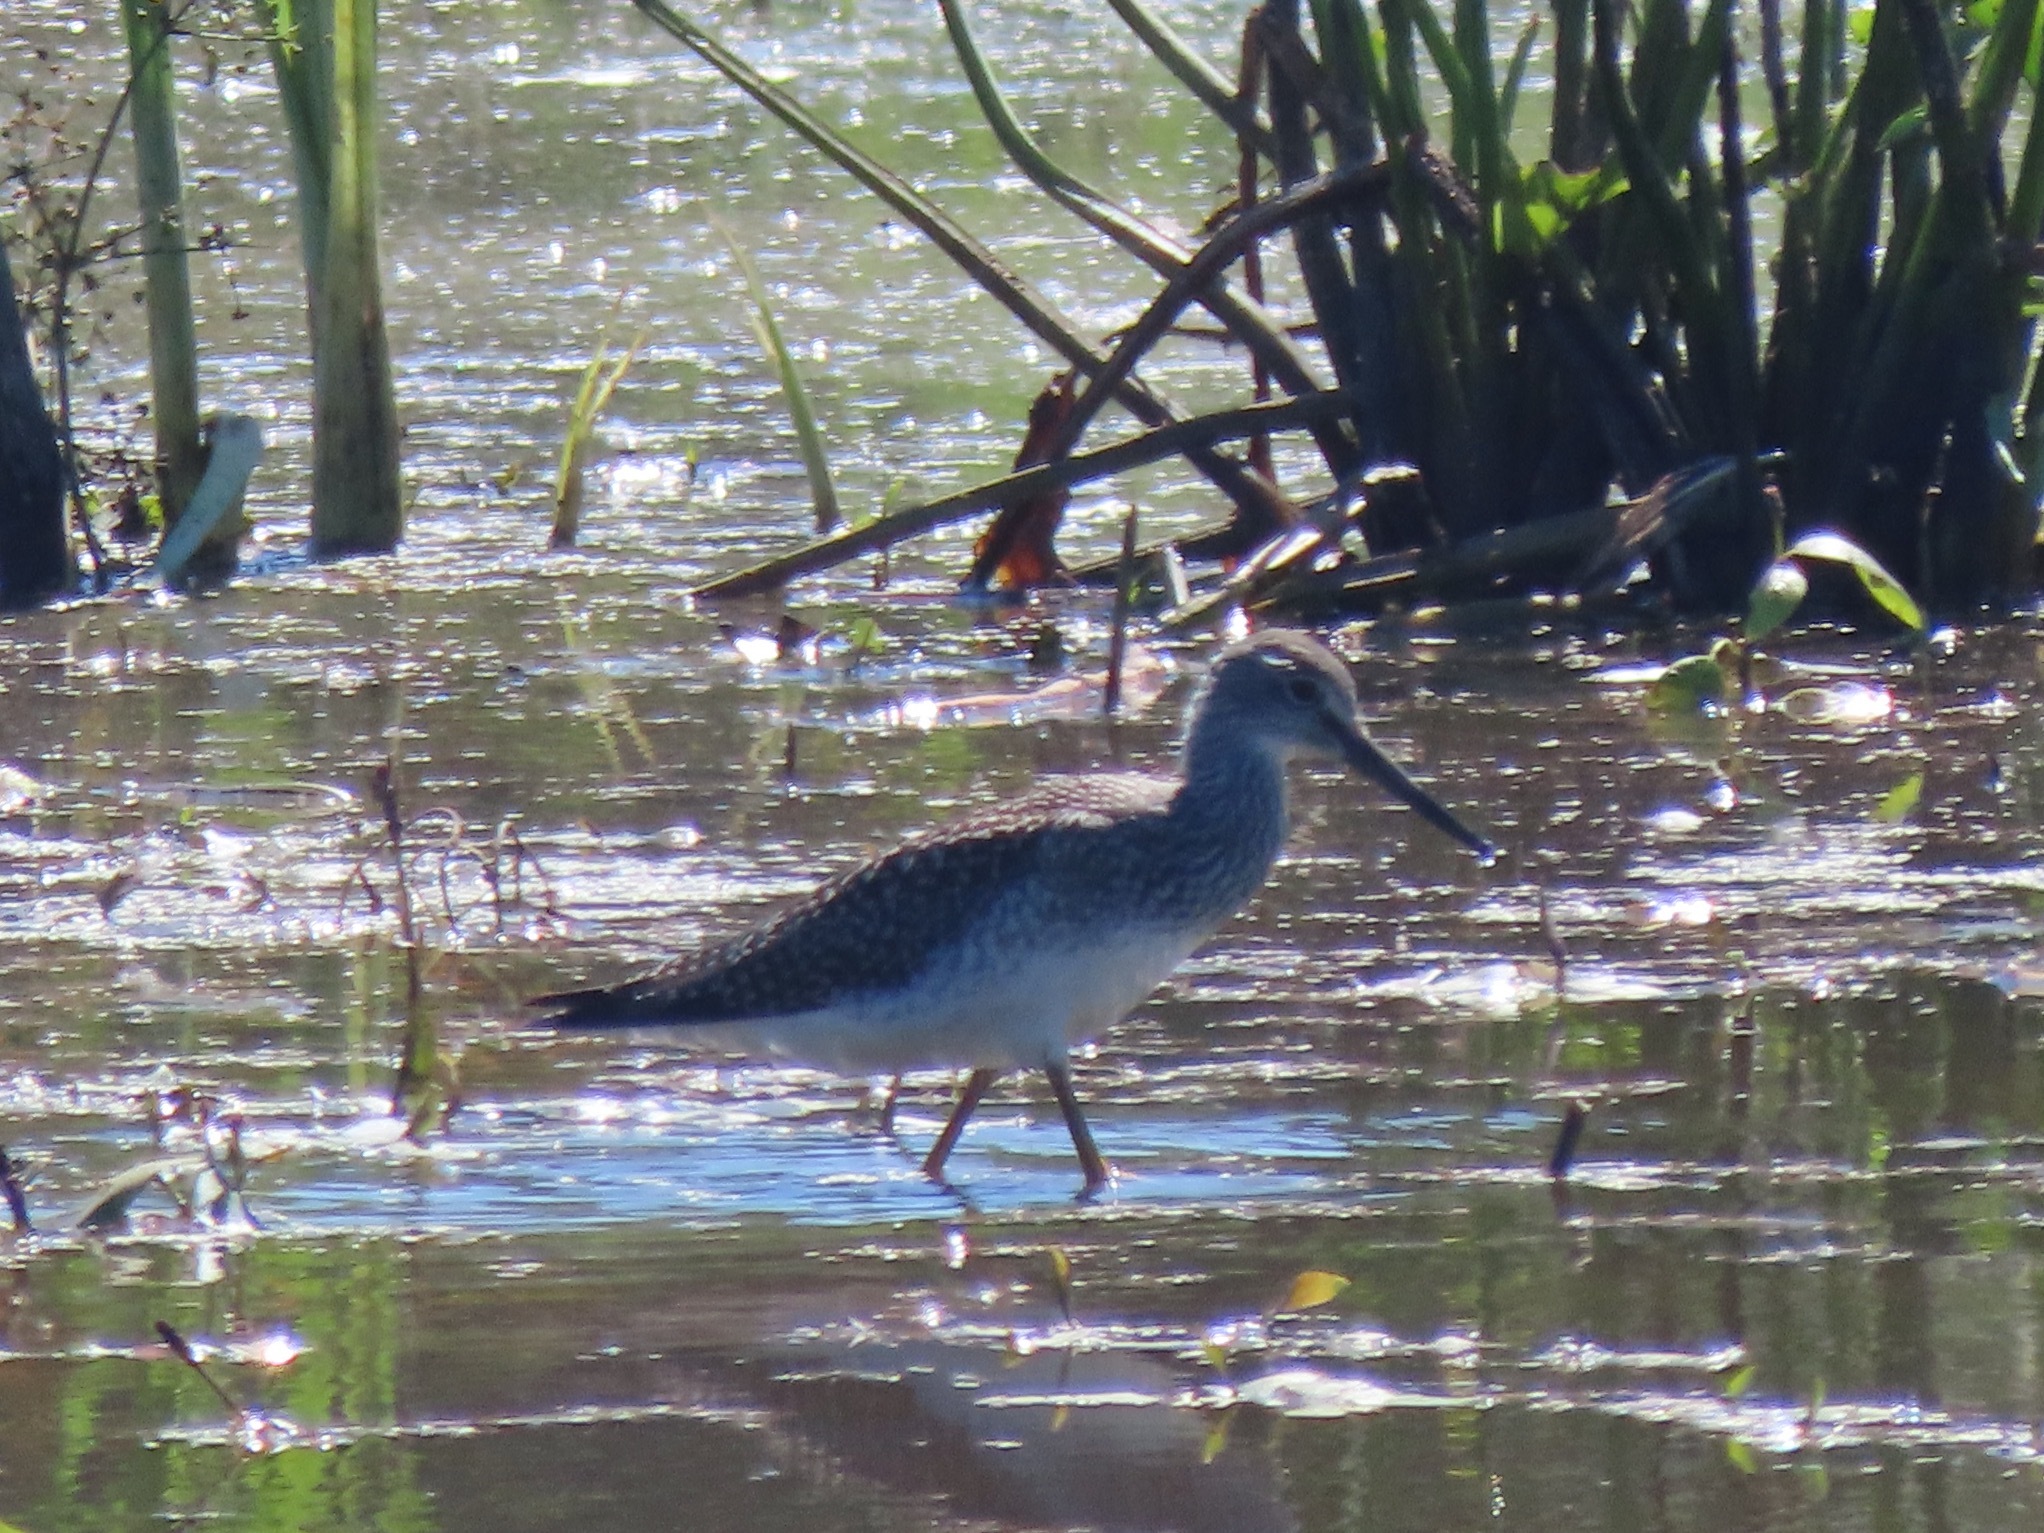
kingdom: Animalia
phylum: Chordata
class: Aves
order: Charadriiformes
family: Scolopacidae
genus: Tringa
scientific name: Tringa melanoleuca
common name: Greater yellowlegs
